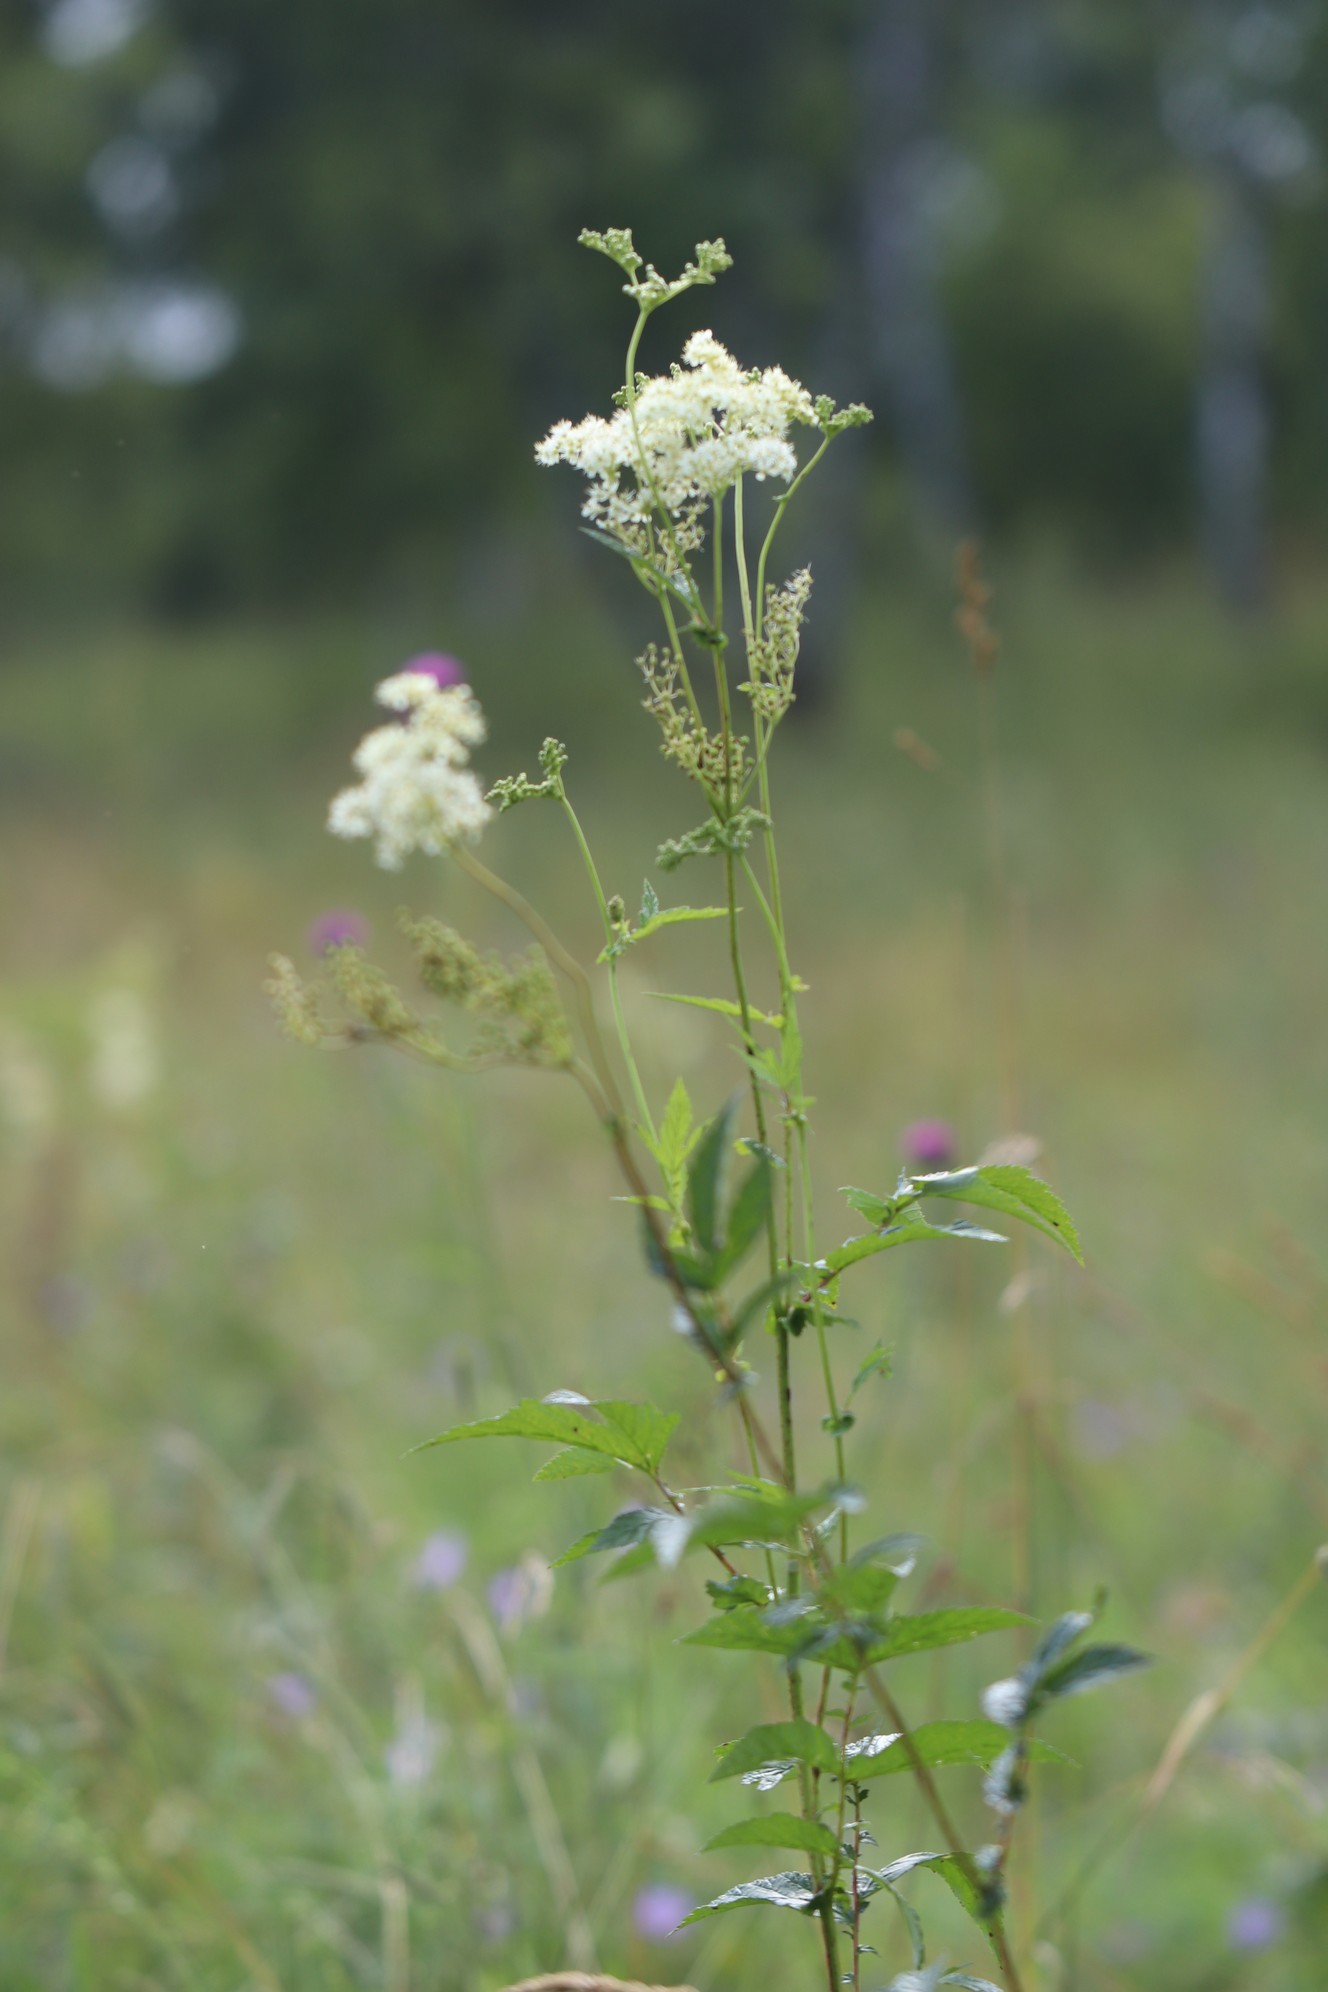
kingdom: Plantae
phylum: Tracheophyta
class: Magnoliopsida
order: Rosales
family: Rosaceae
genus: Filipendula
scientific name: Filipendula ulmaria
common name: Meadowsweet
